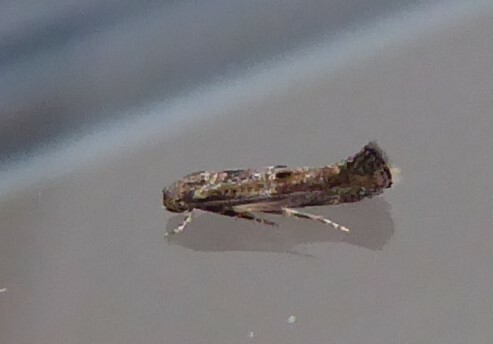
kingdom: Animalia
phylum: Arthropoda
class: Insecta
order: Lepidoptera
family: Elachistidae
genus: Elachista
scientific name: Elachista synethes
